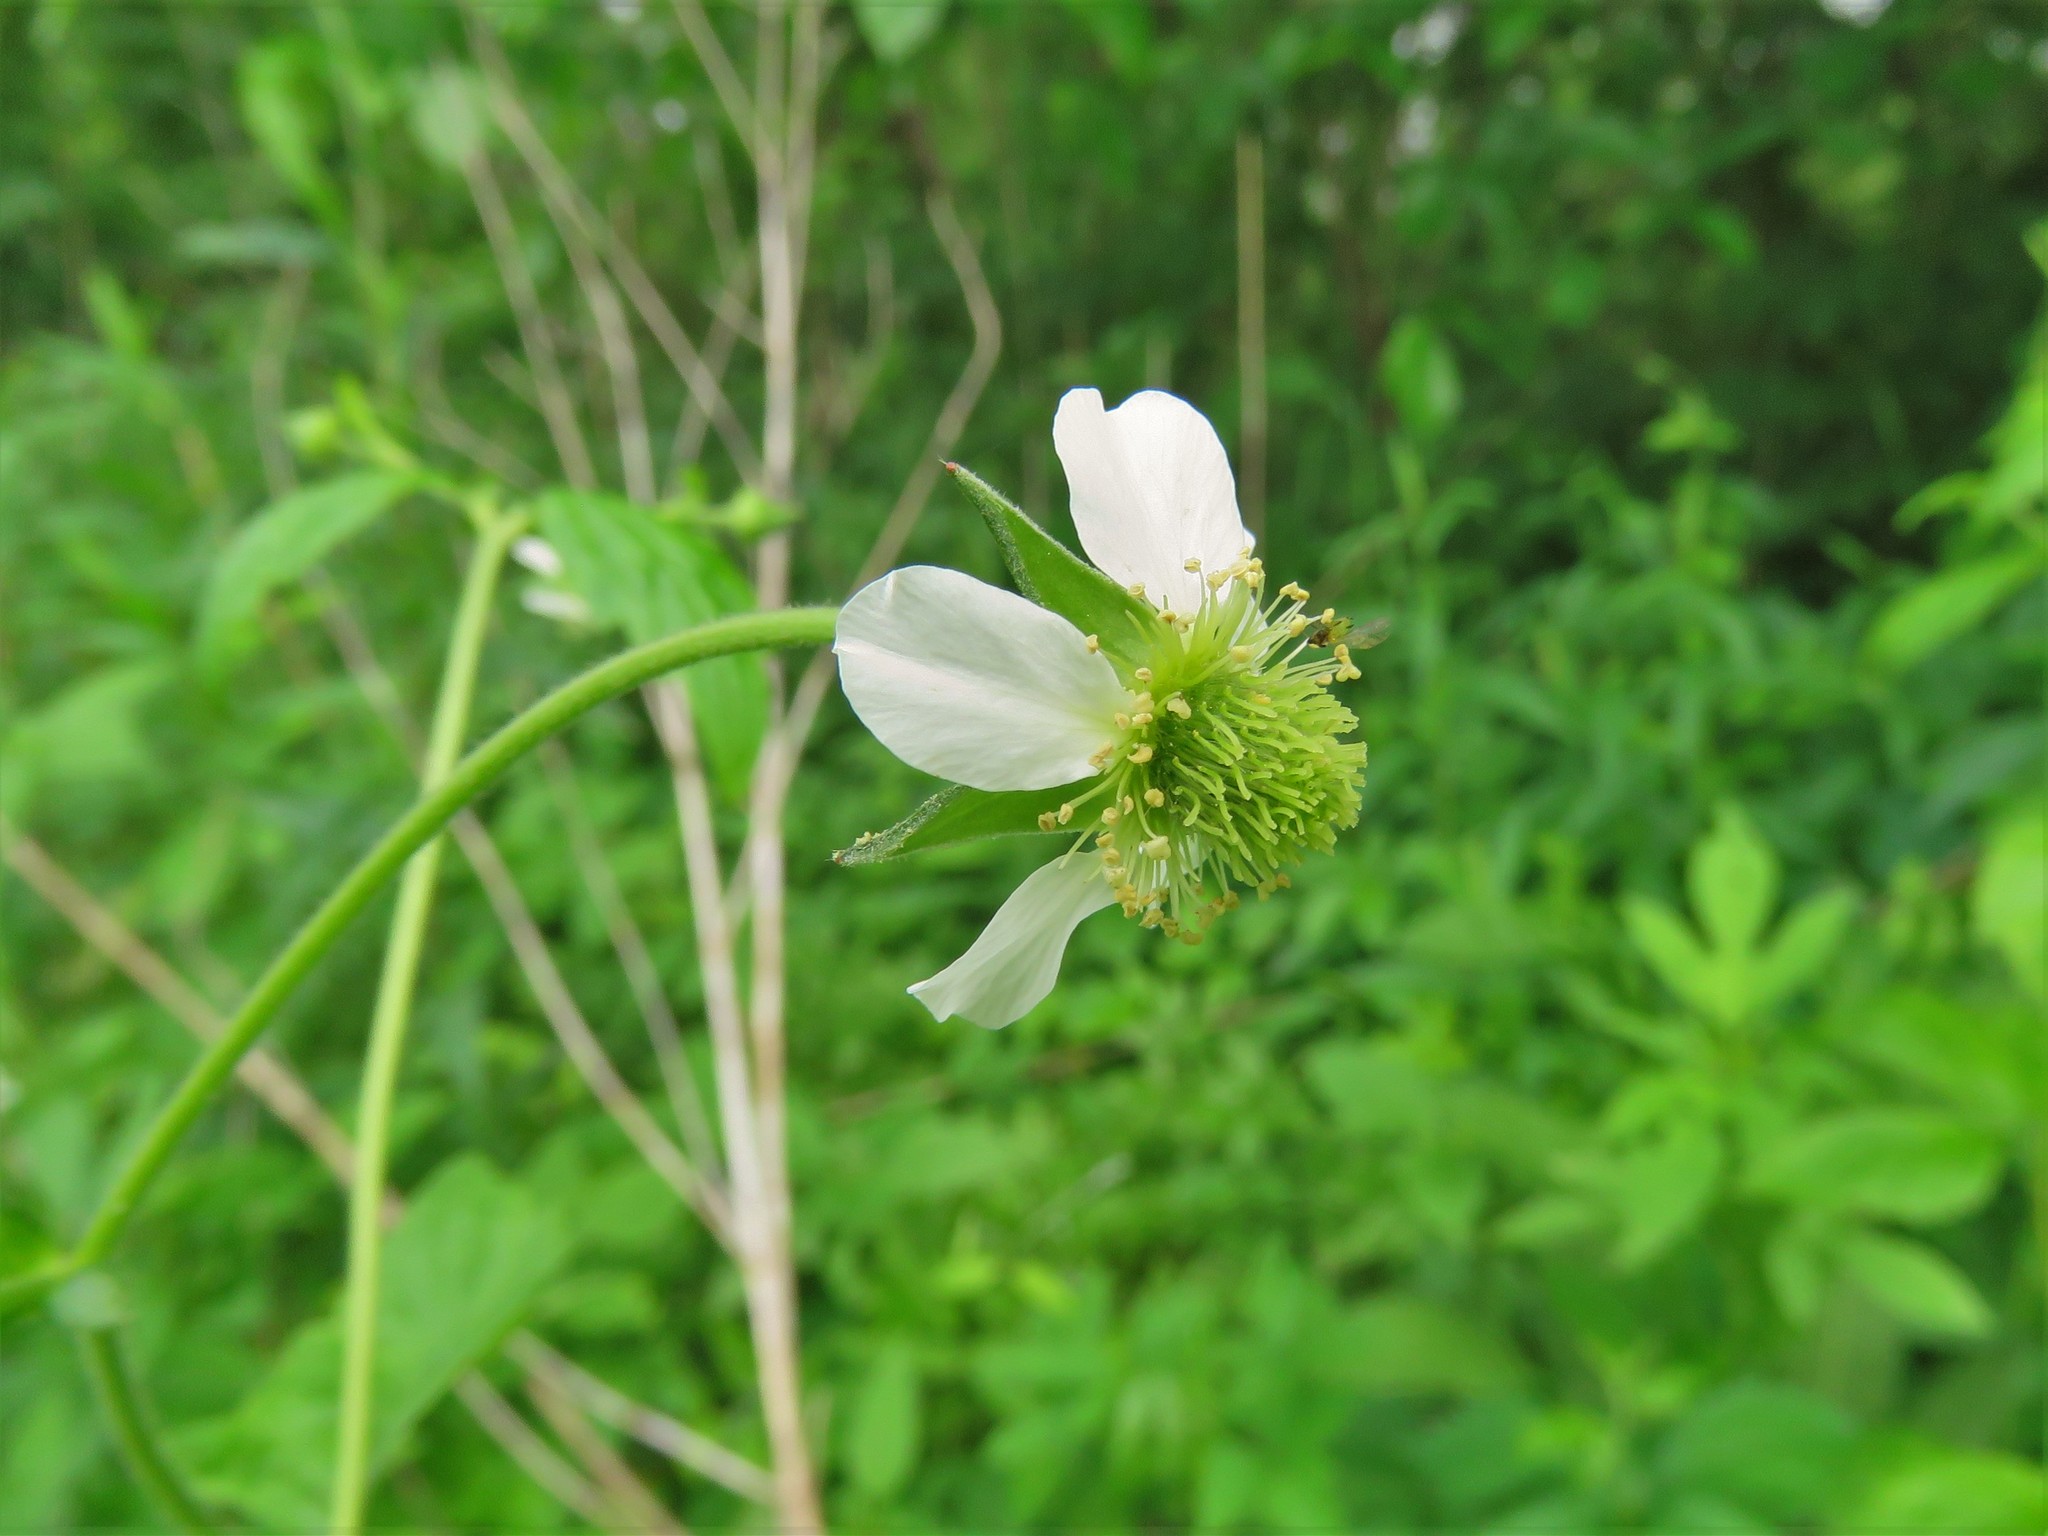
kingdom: Plantae
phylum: Tracheophyta
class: Magnoliopsida
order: Rosales
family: Rosaceae
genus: Geum
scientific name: Geum canadense
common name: White avens
